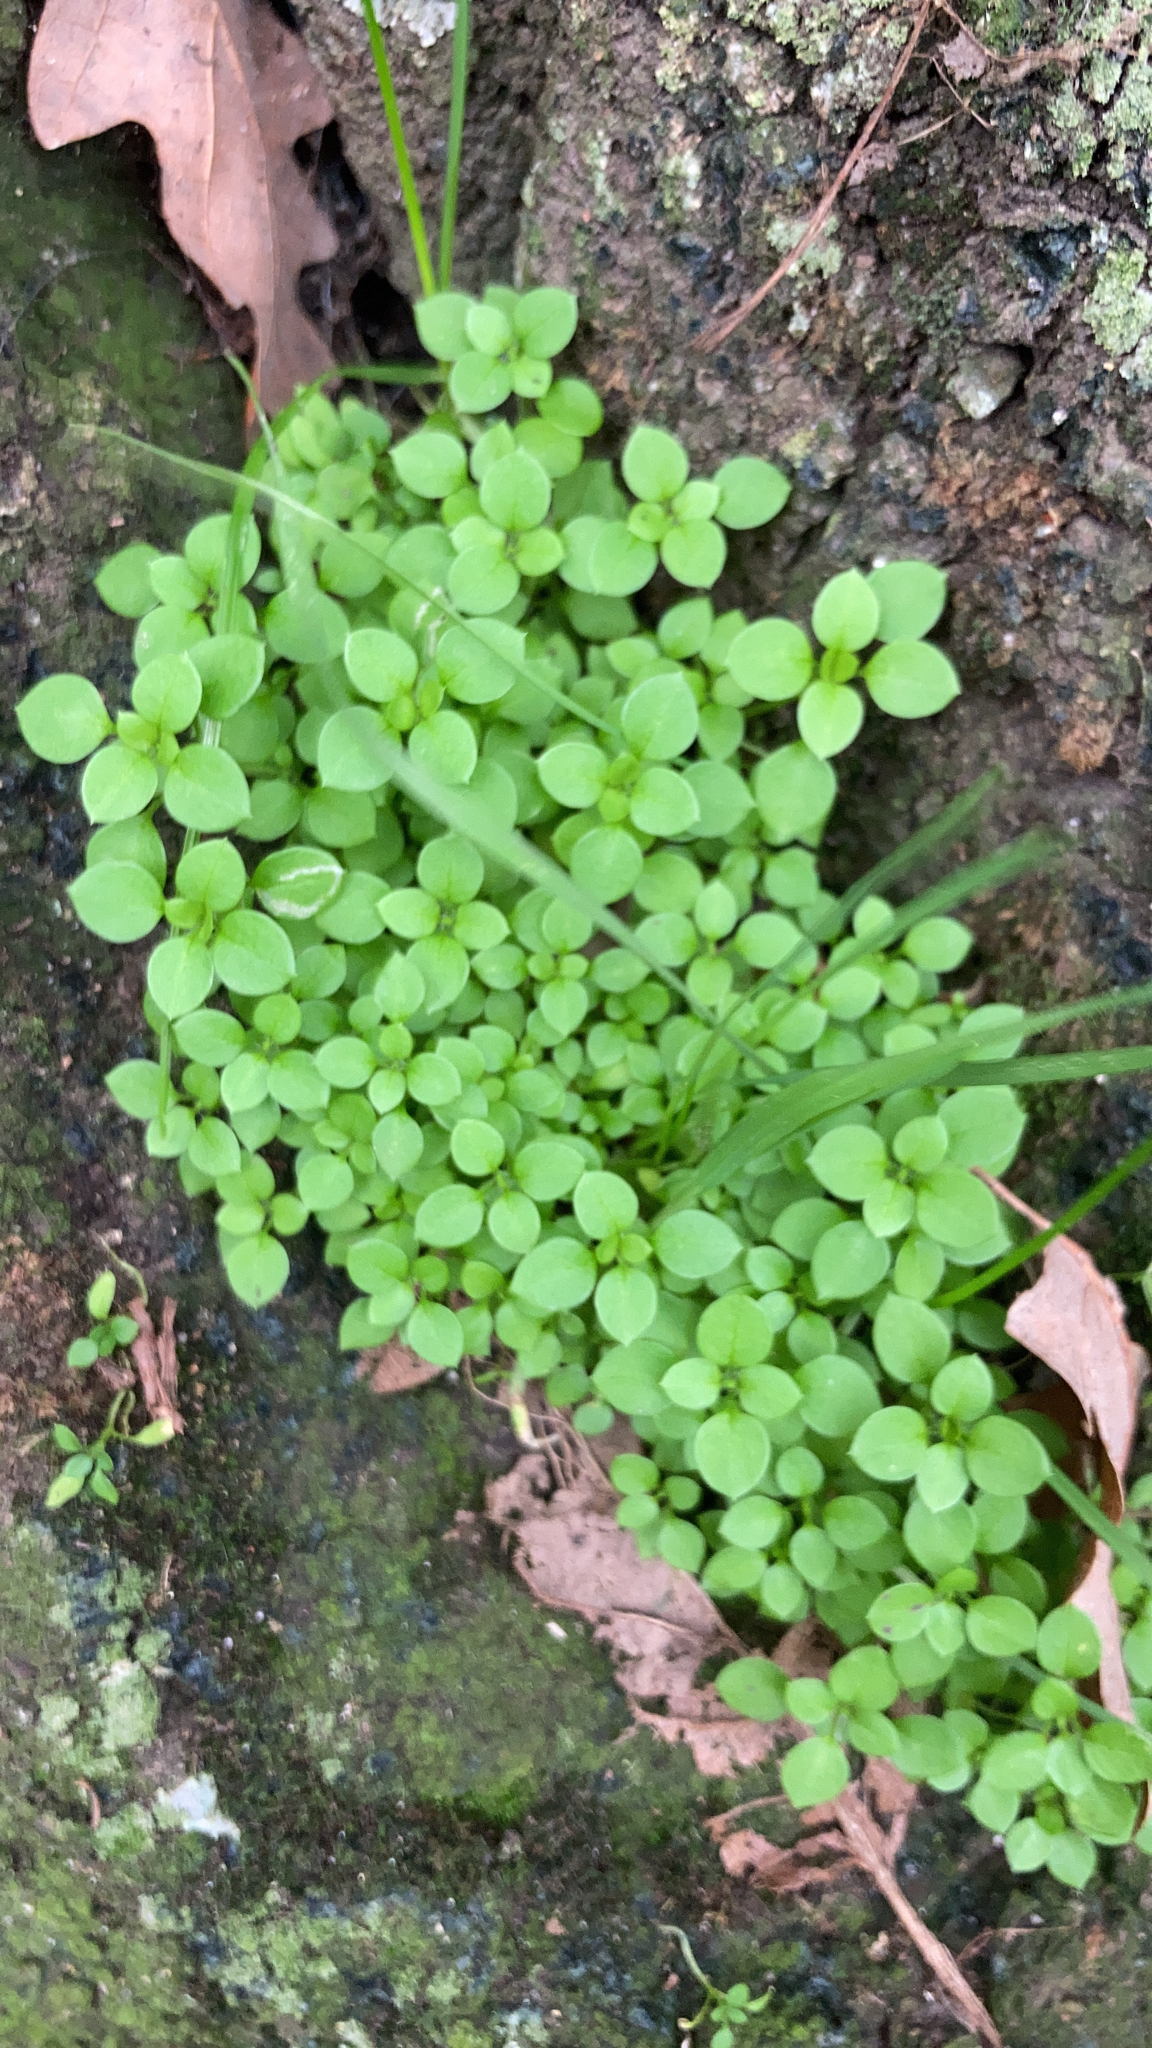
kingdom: Plantae
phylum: Tracheophyta
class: Magnoliopsida
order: Caryophyllales
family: Caryophyllaceae
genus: Stellaria
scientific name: Stellaria media
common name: Common chickweed
